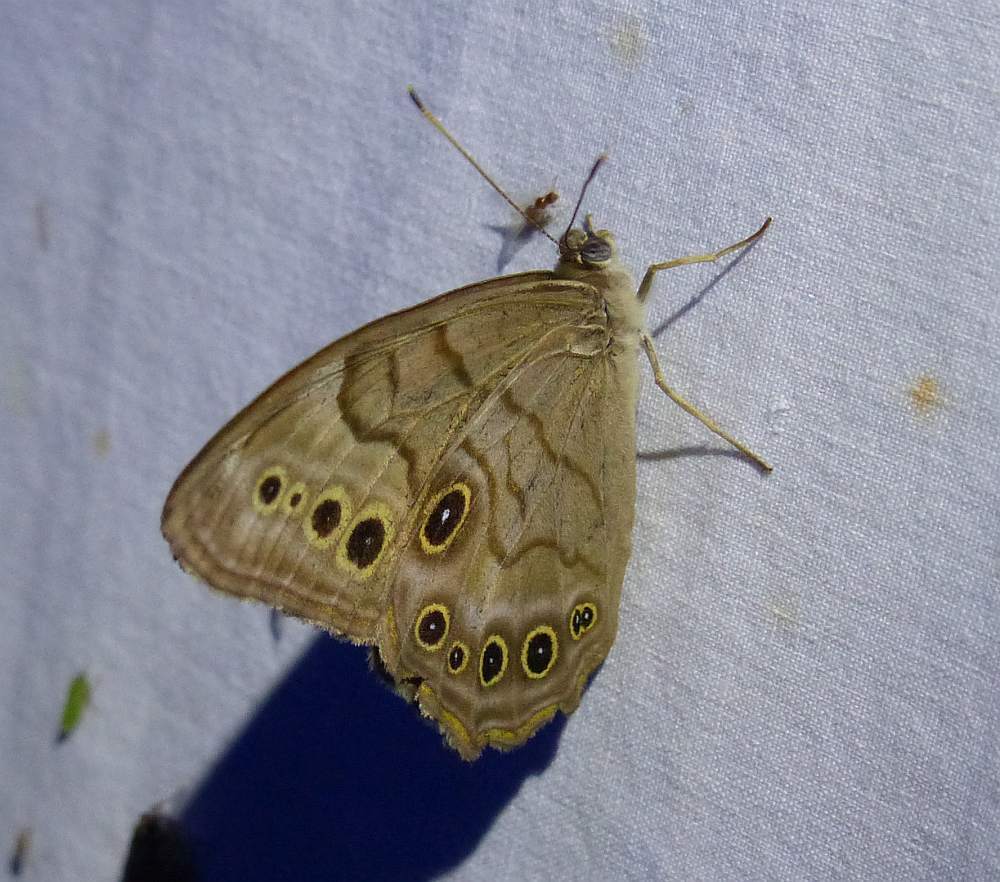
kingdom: Animalia
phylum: Arthropoda
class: Insecta
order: Lepidoptera
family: Nymphalidae
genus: Lethe
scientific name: Lethe anthedon
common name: Northern pearly-eye
